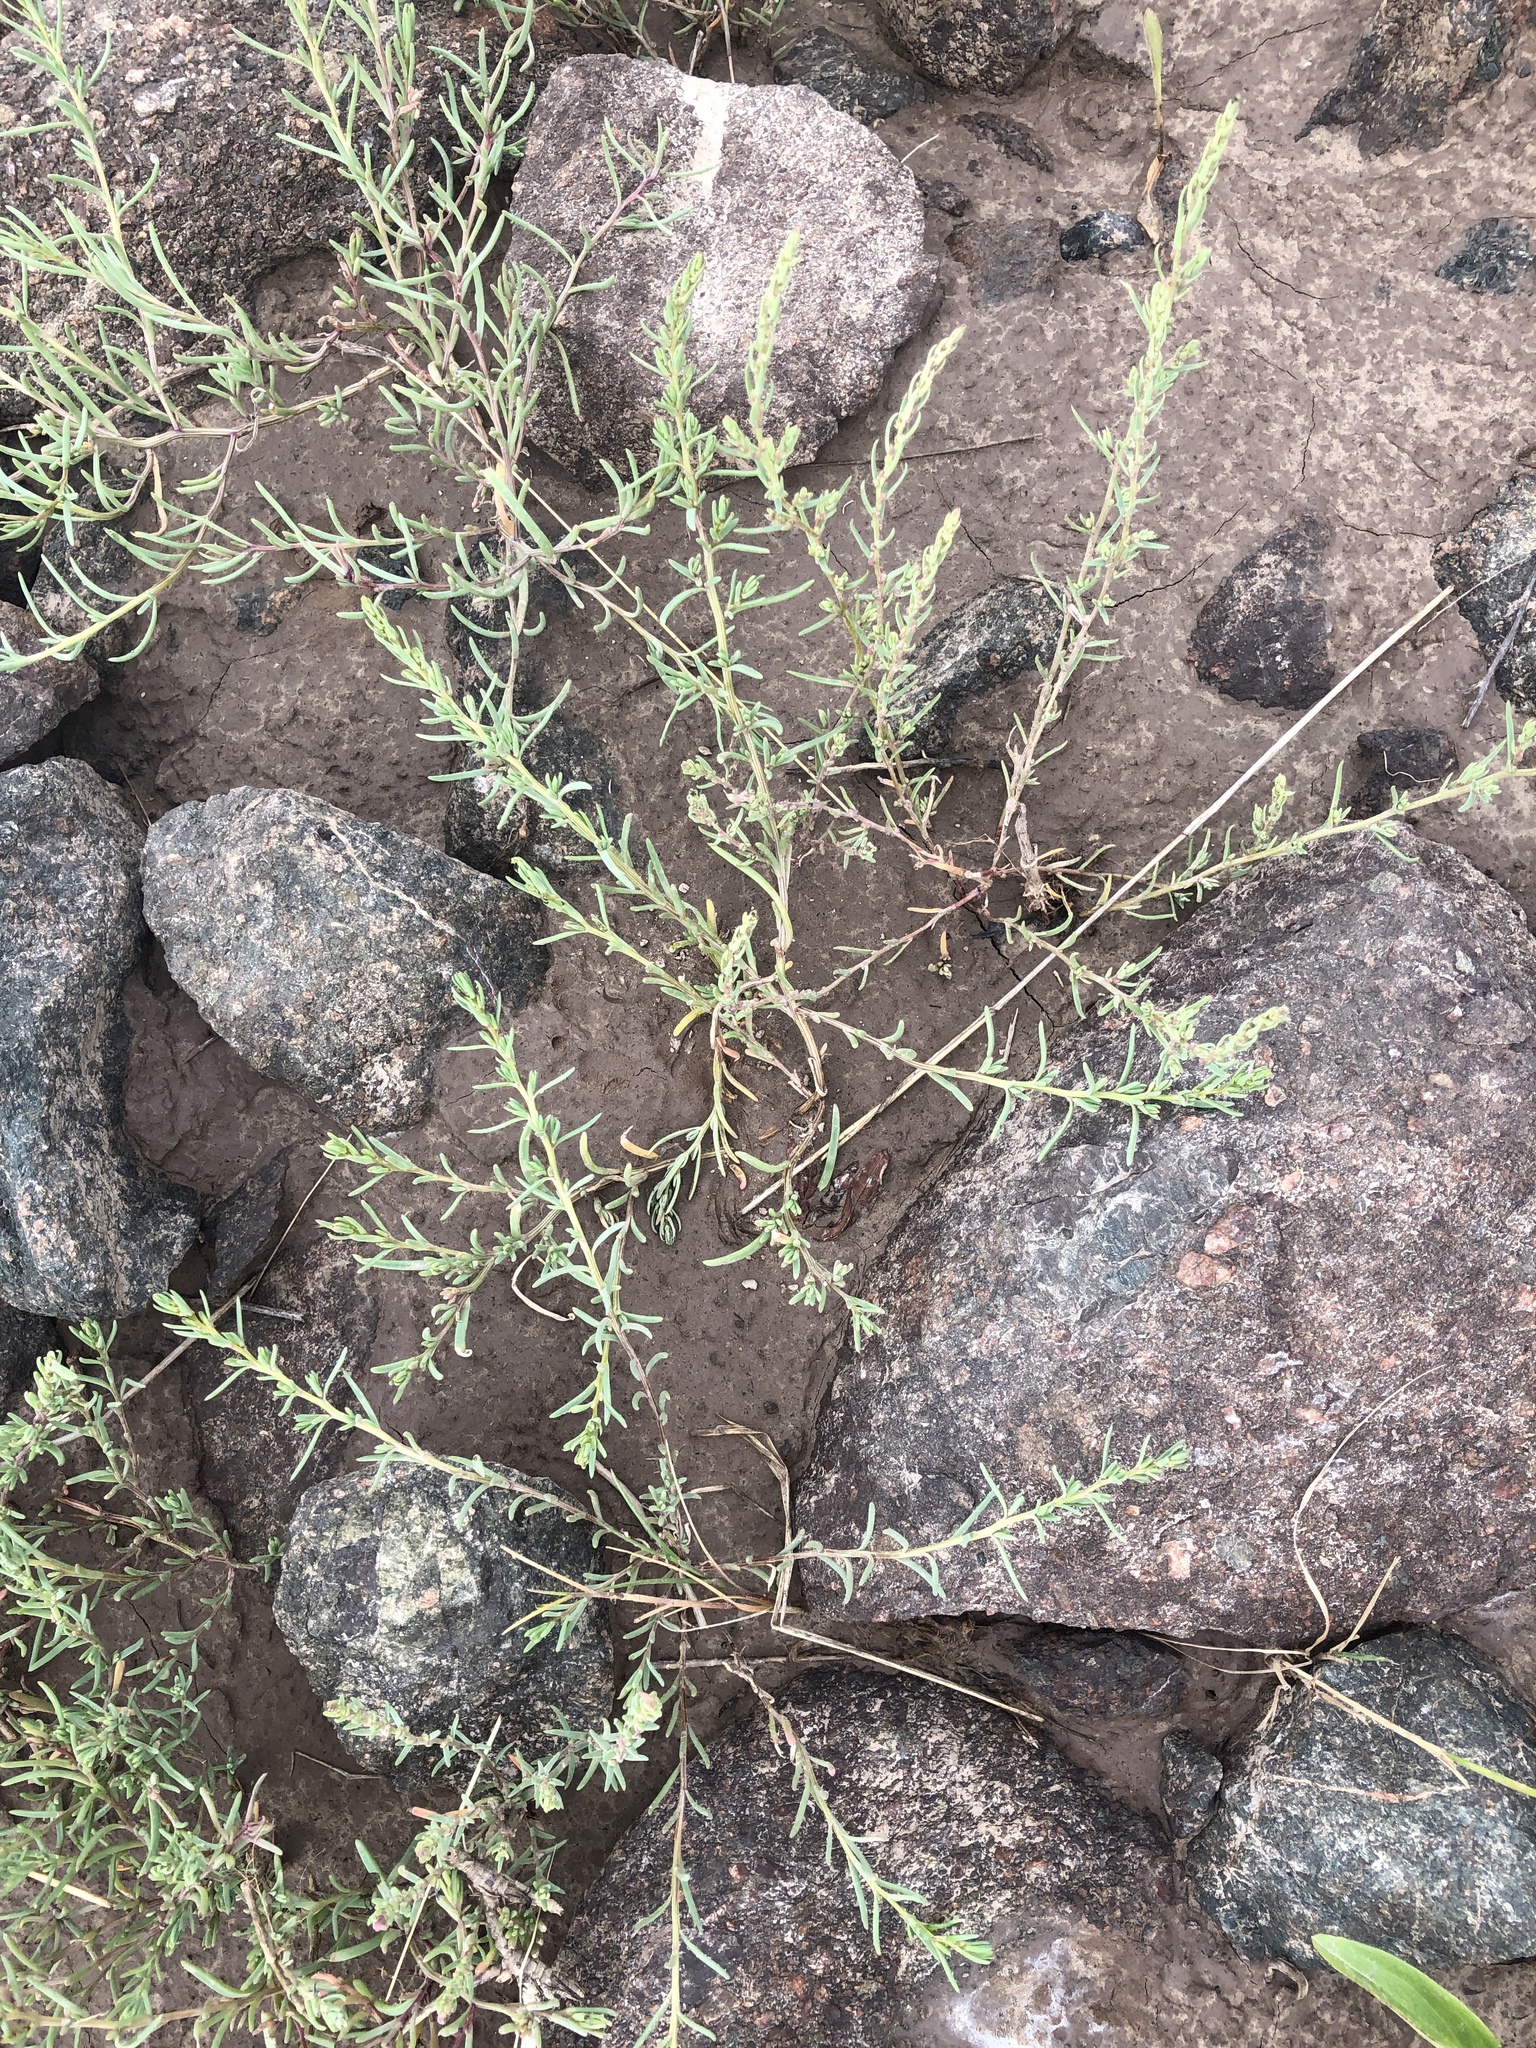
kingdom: Plantae
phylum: Tracheophyta
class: Magnoliopsida
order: Caryophyllales
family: Amaranthaceae
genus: Suaeda
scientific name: Suaeda maritima
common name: Annual sea-blite
